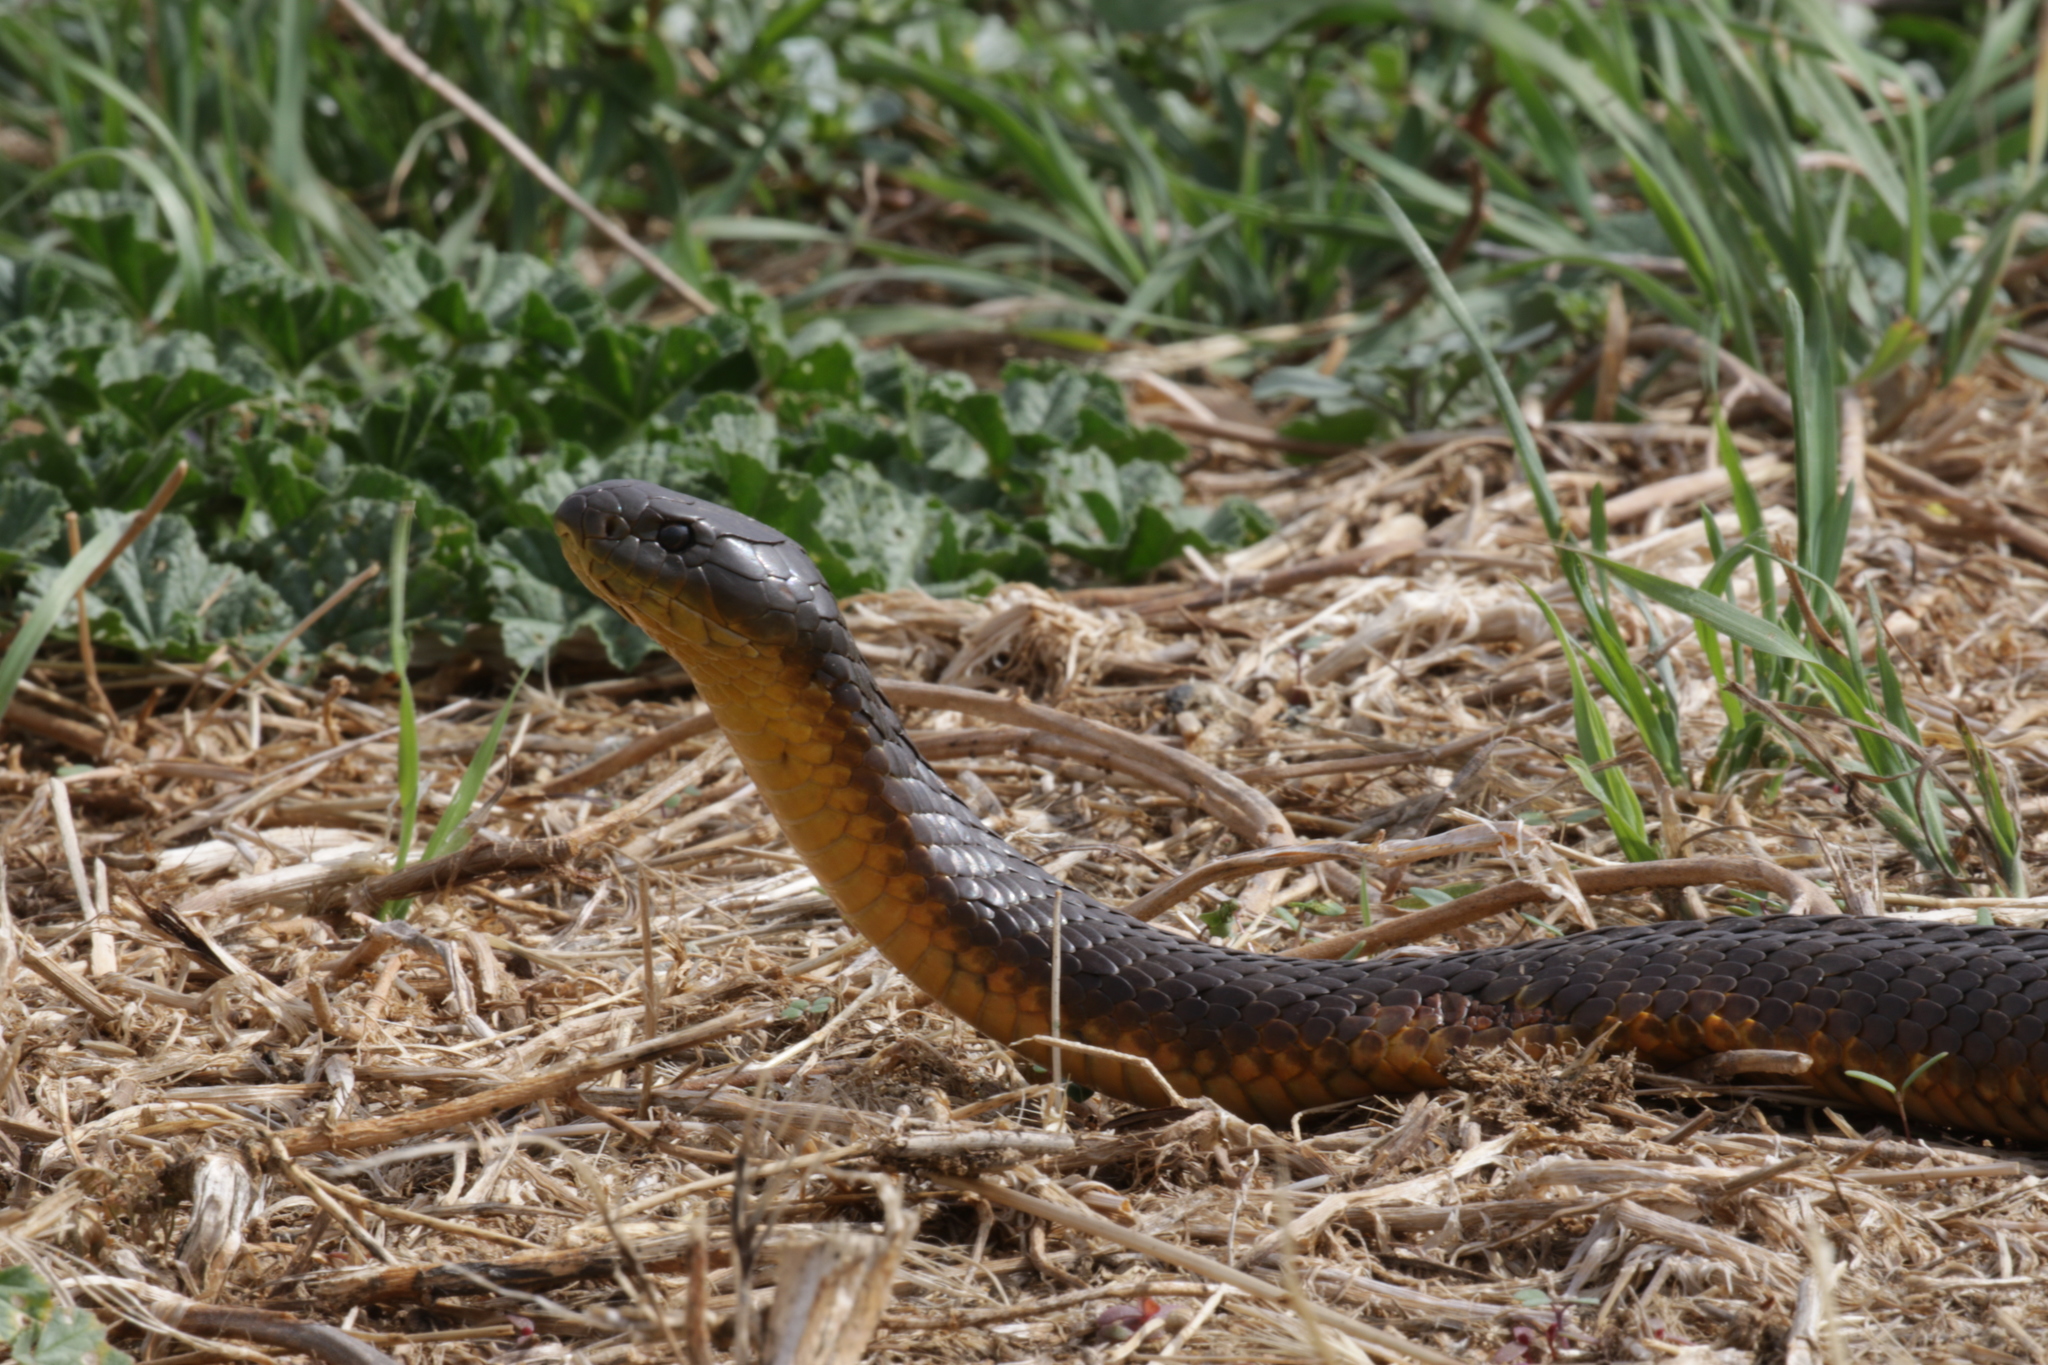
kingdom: Animalia
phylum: Chordata
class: Squamata
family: Elapidae
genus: Notechis
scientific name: Notechis scutatus
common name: Mainland tiger snake
